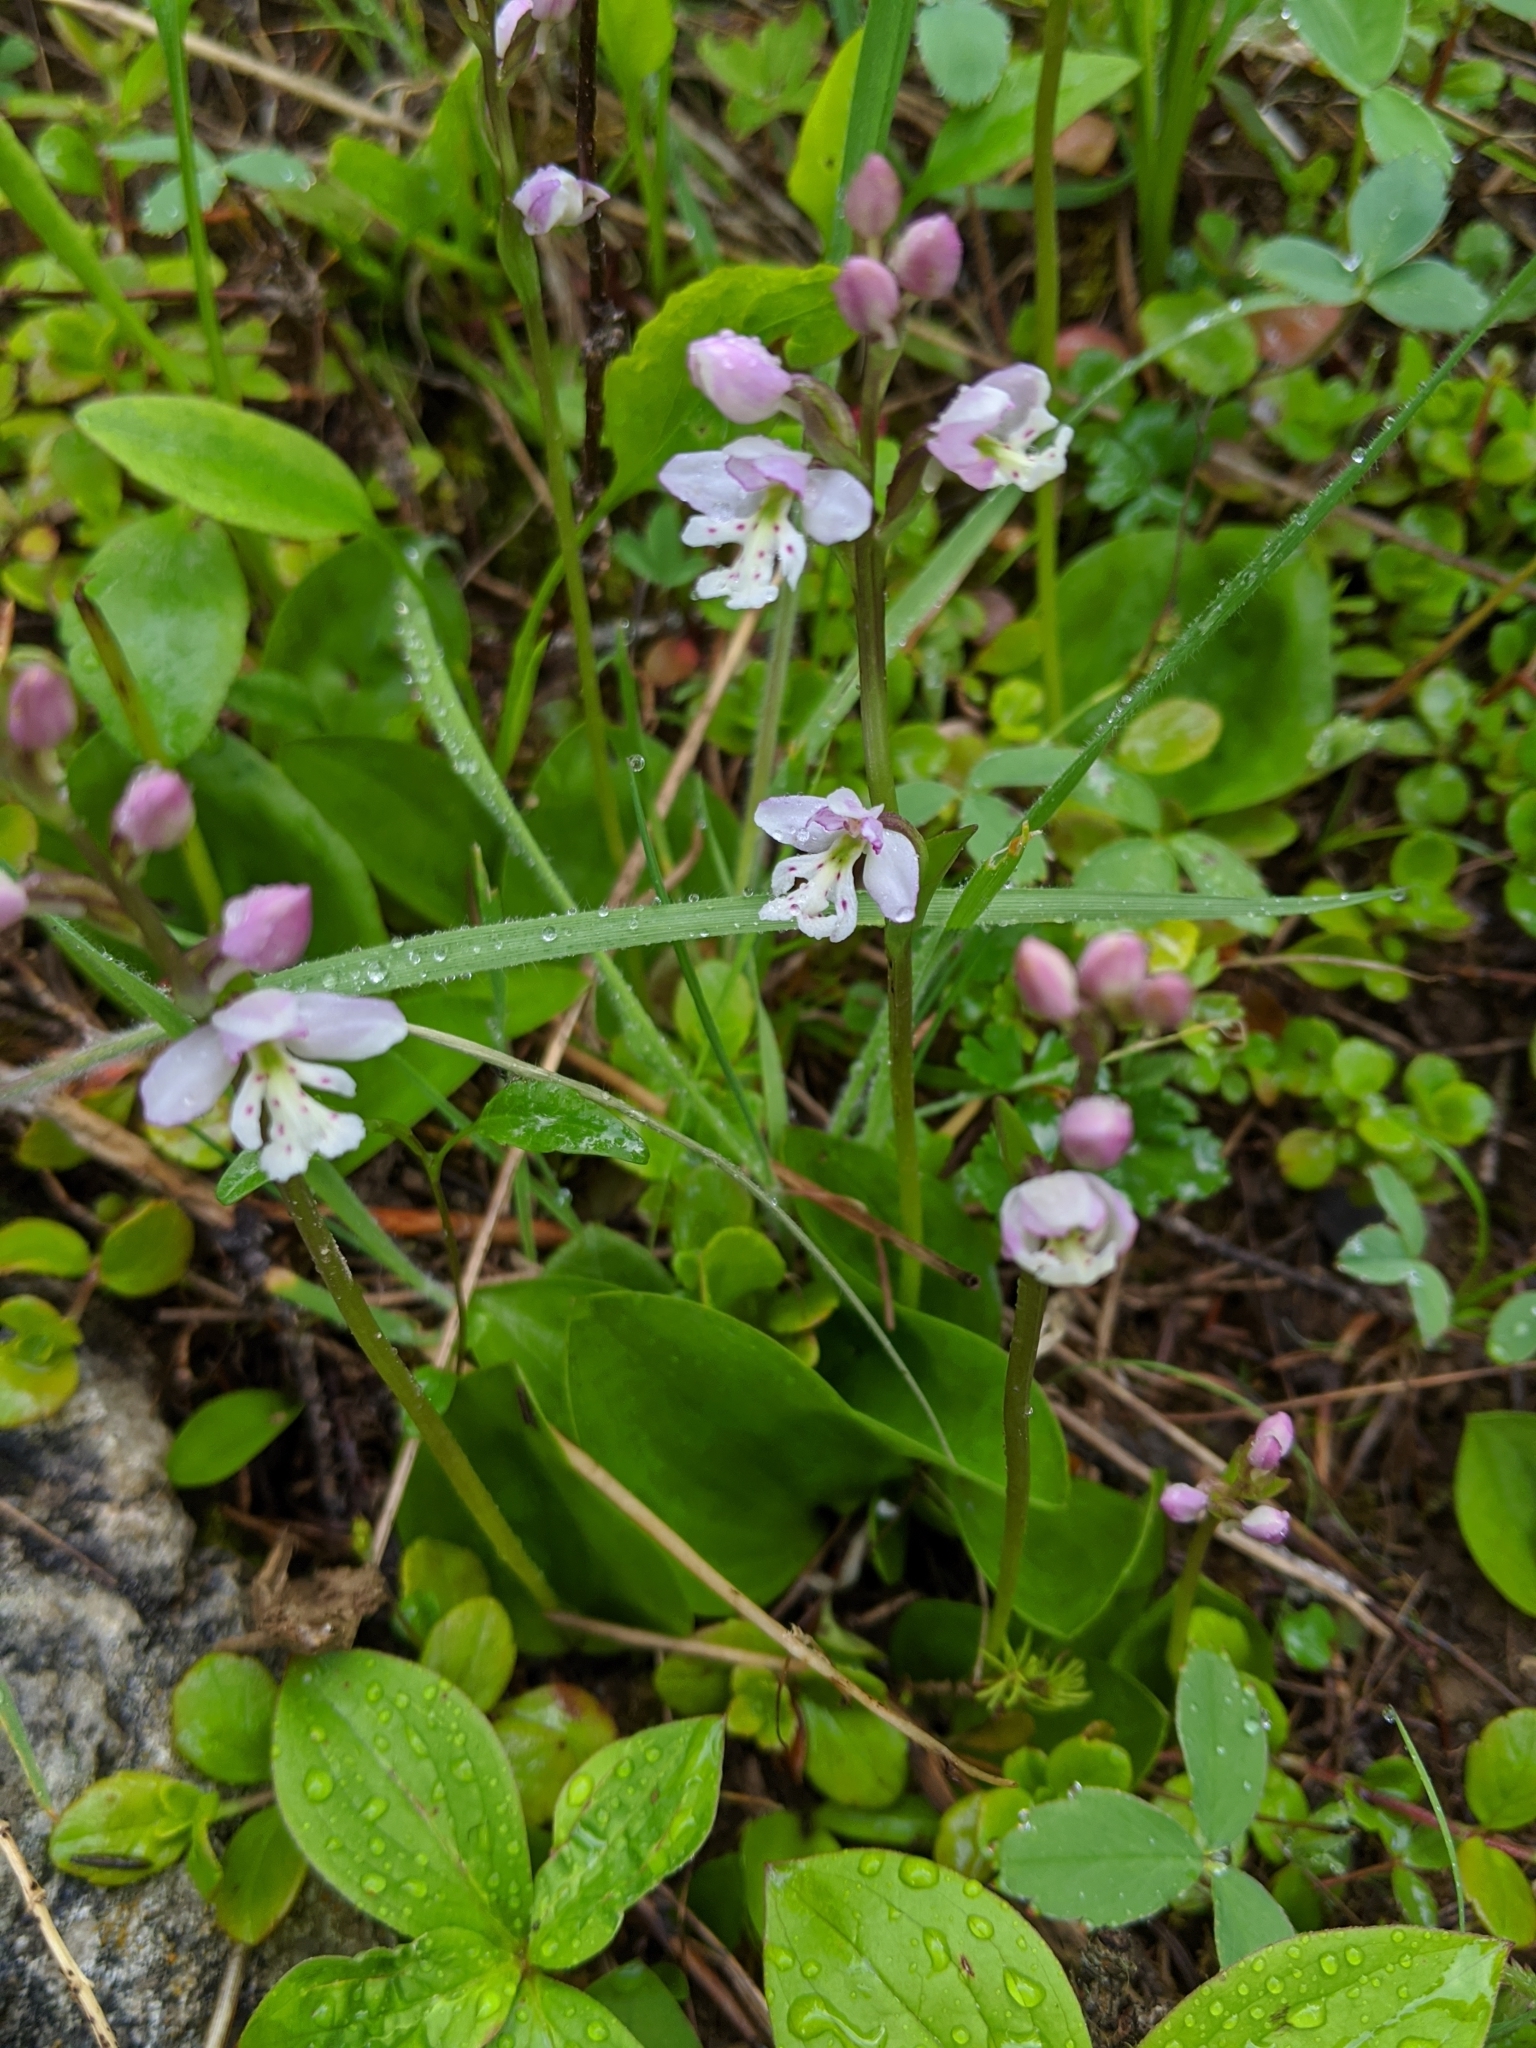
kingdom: Plantae
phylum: Tracheophyta
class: Liliopsida
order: Asparagales
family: Orchidaceae
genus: Galearis
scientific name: Galearis rotundifolia
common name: One-leaved orchis
